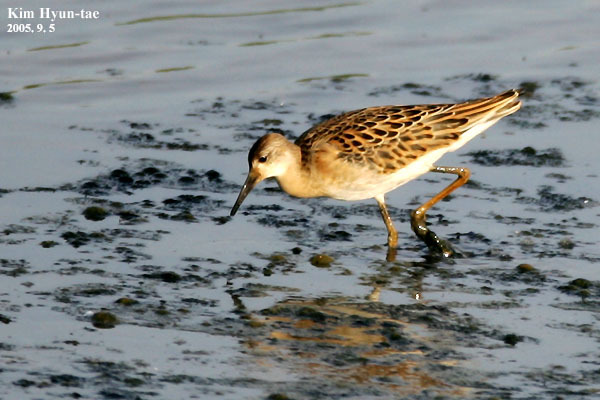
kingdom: Animalia
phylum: Chordata
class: Aves
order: Charadriiformes
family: Scolopacidae
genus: Calidris
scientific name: Calidris pugnax
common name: Ruff
